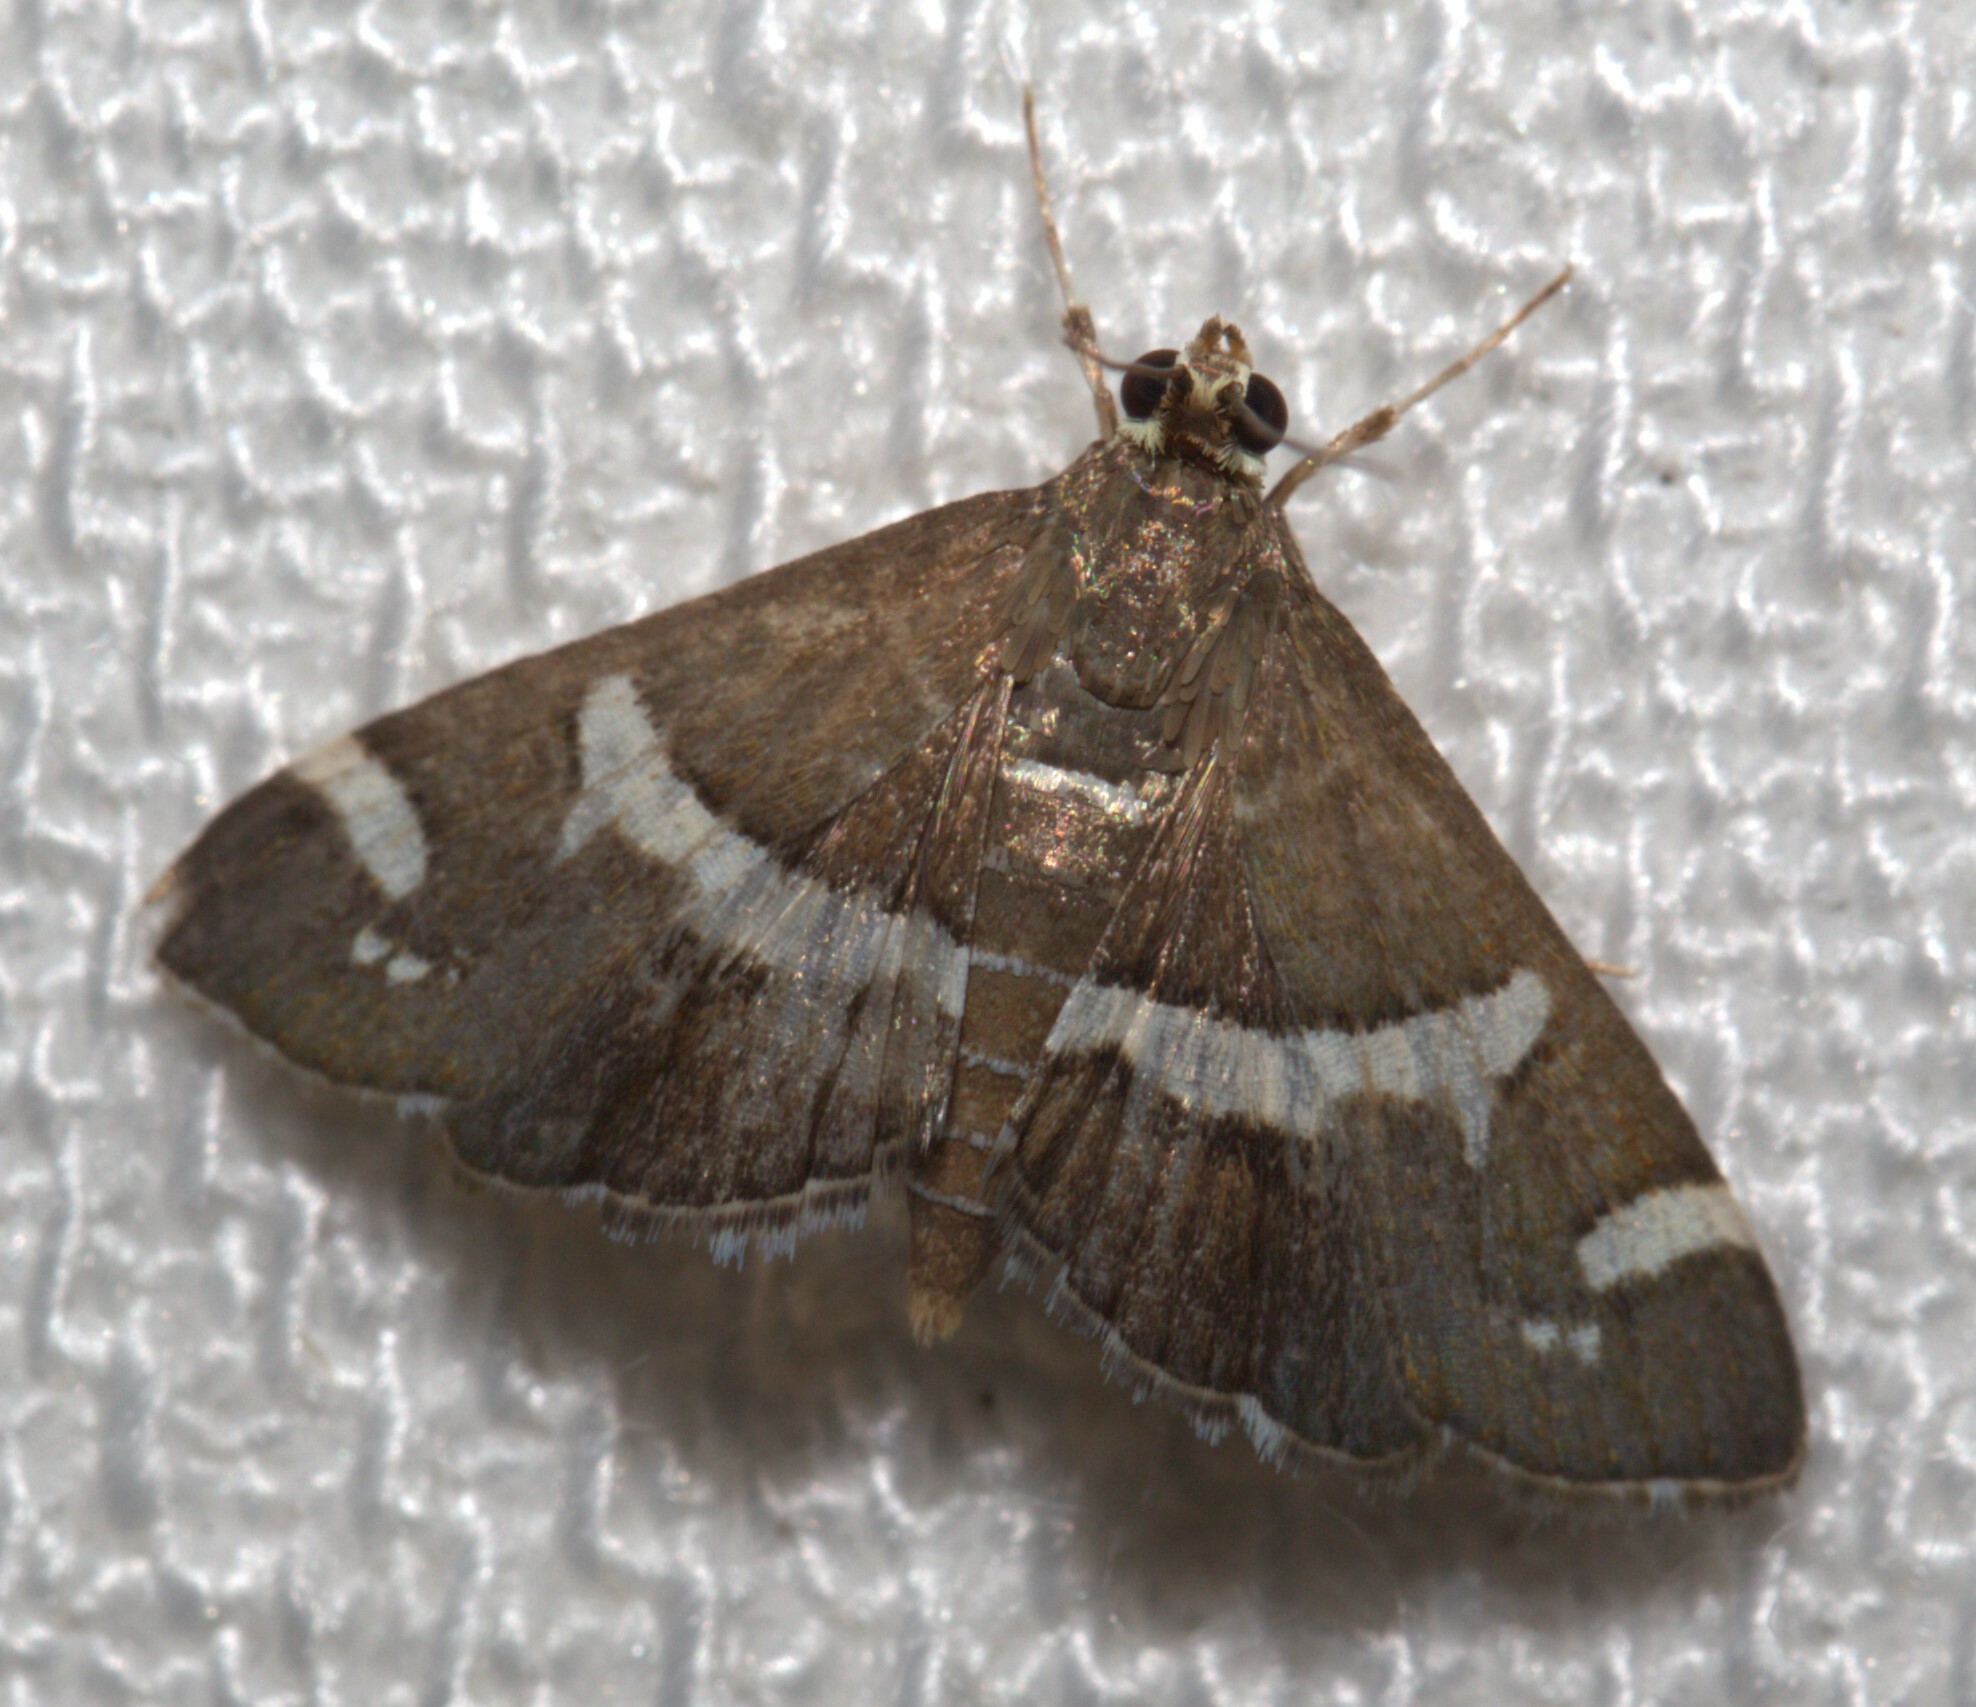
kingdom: Animalia
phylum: Arthropoda
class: Insecta
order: Lepidoptera
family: Crambidae
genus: Spoladea
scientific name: Spoladea recurvalis
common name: Beet webworm moth
